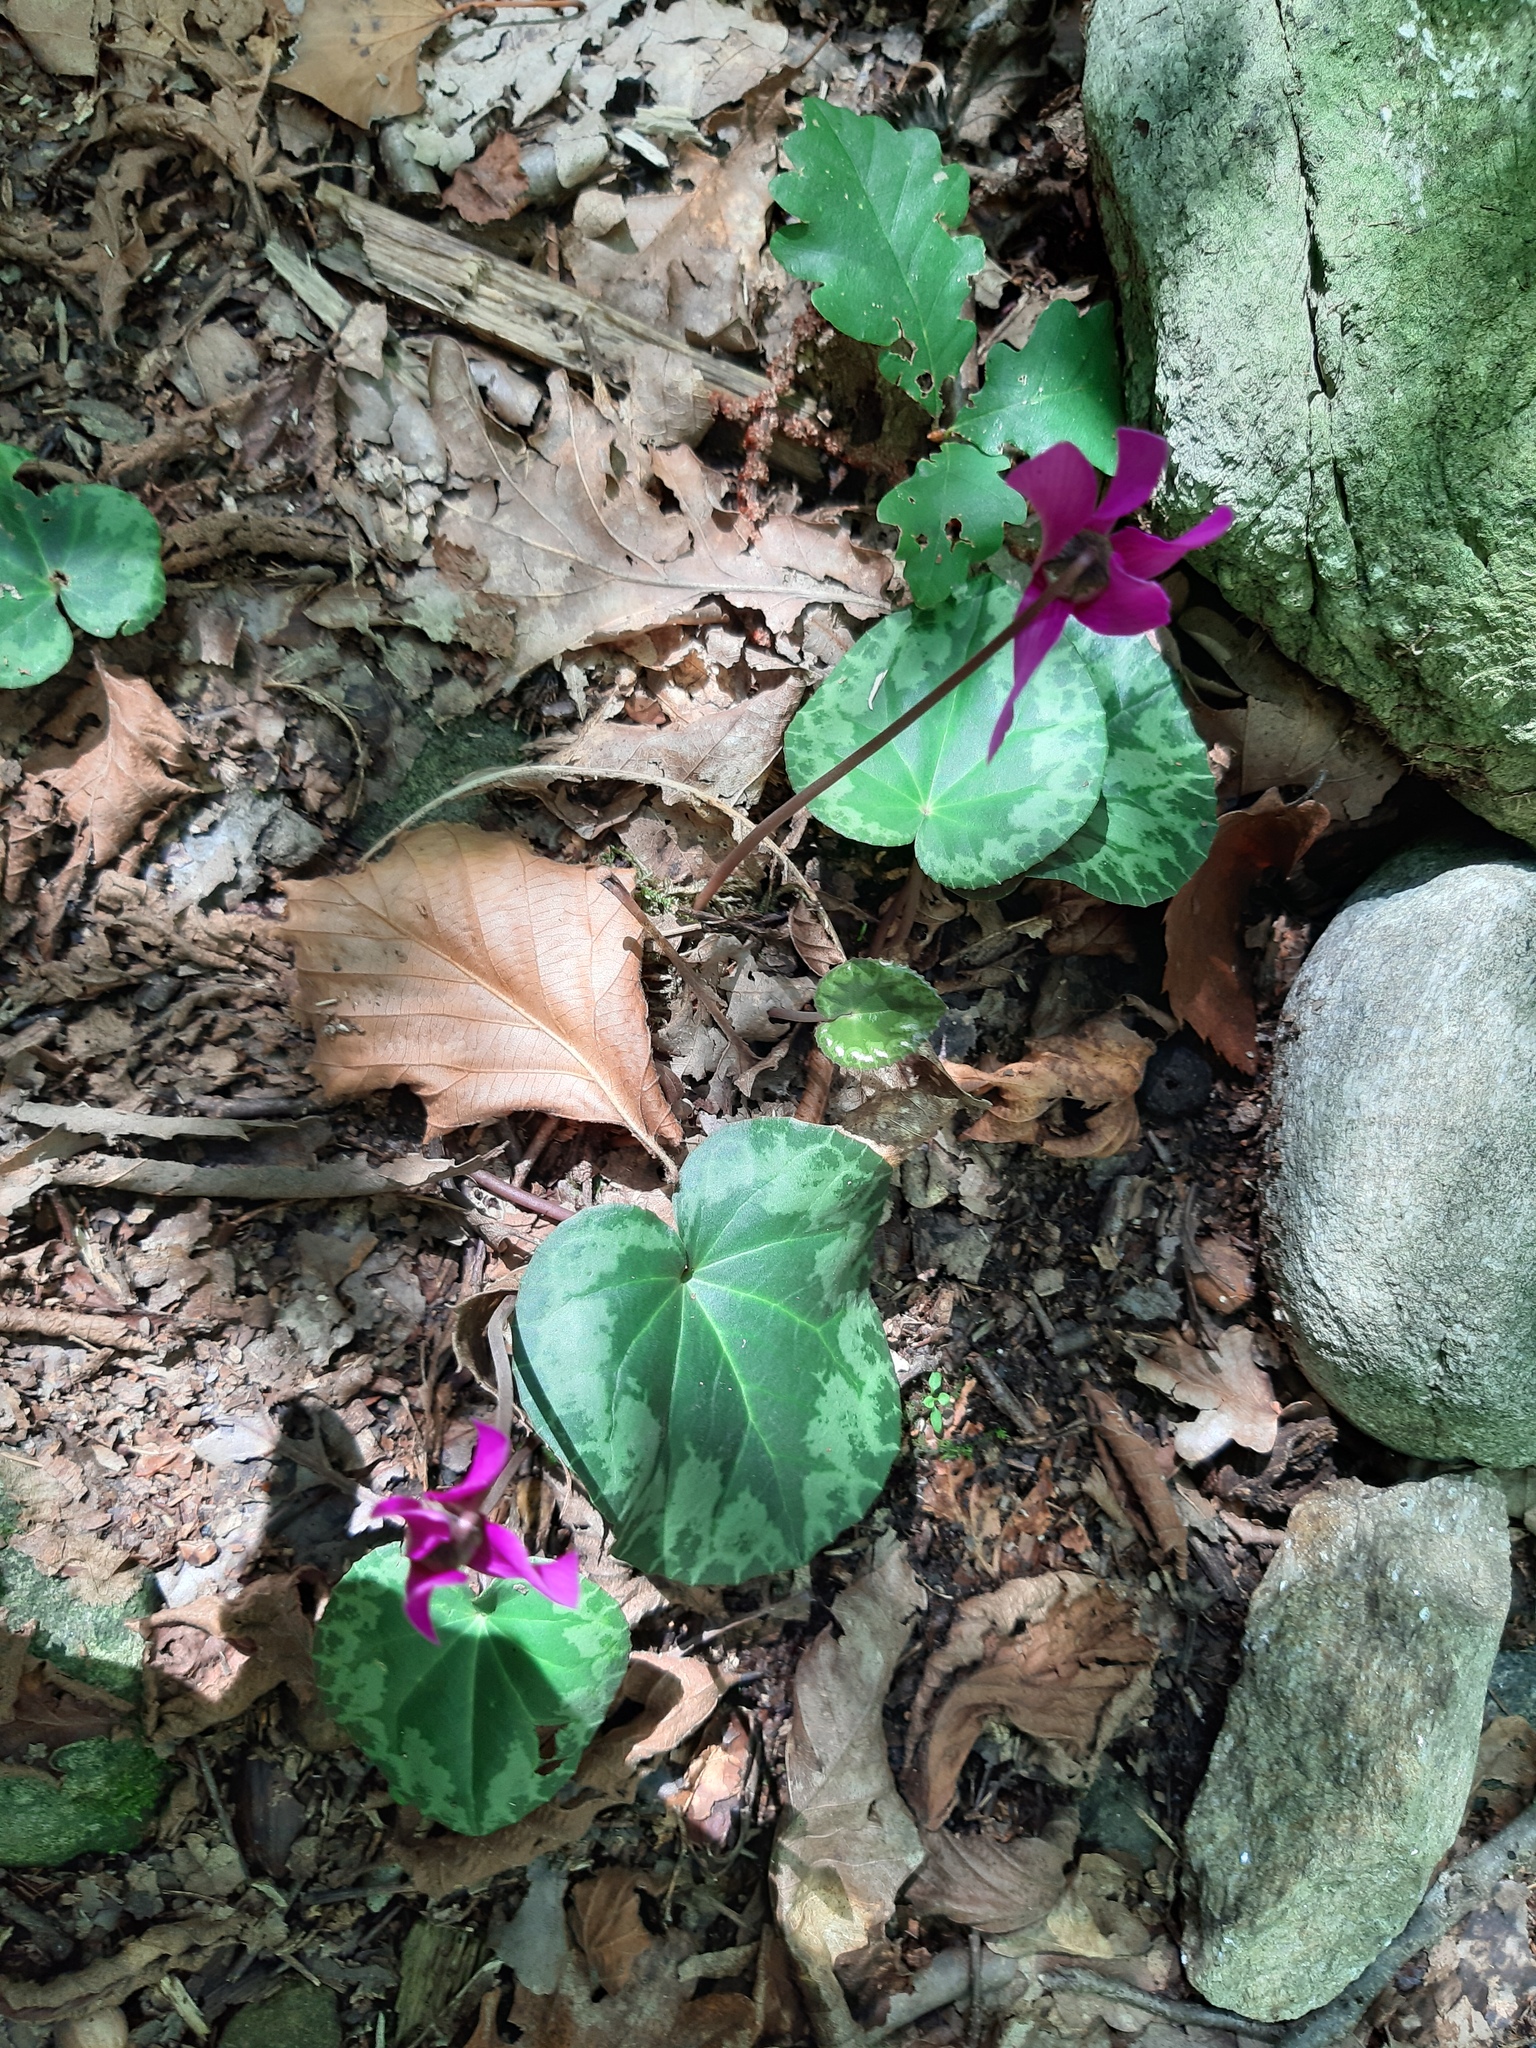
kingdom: Plantae
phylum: Tracheophyta
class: Magnoliopsida
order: Ericales
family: Primulaceae
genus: Cyclamen
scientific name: Cyclamen purpurascens
